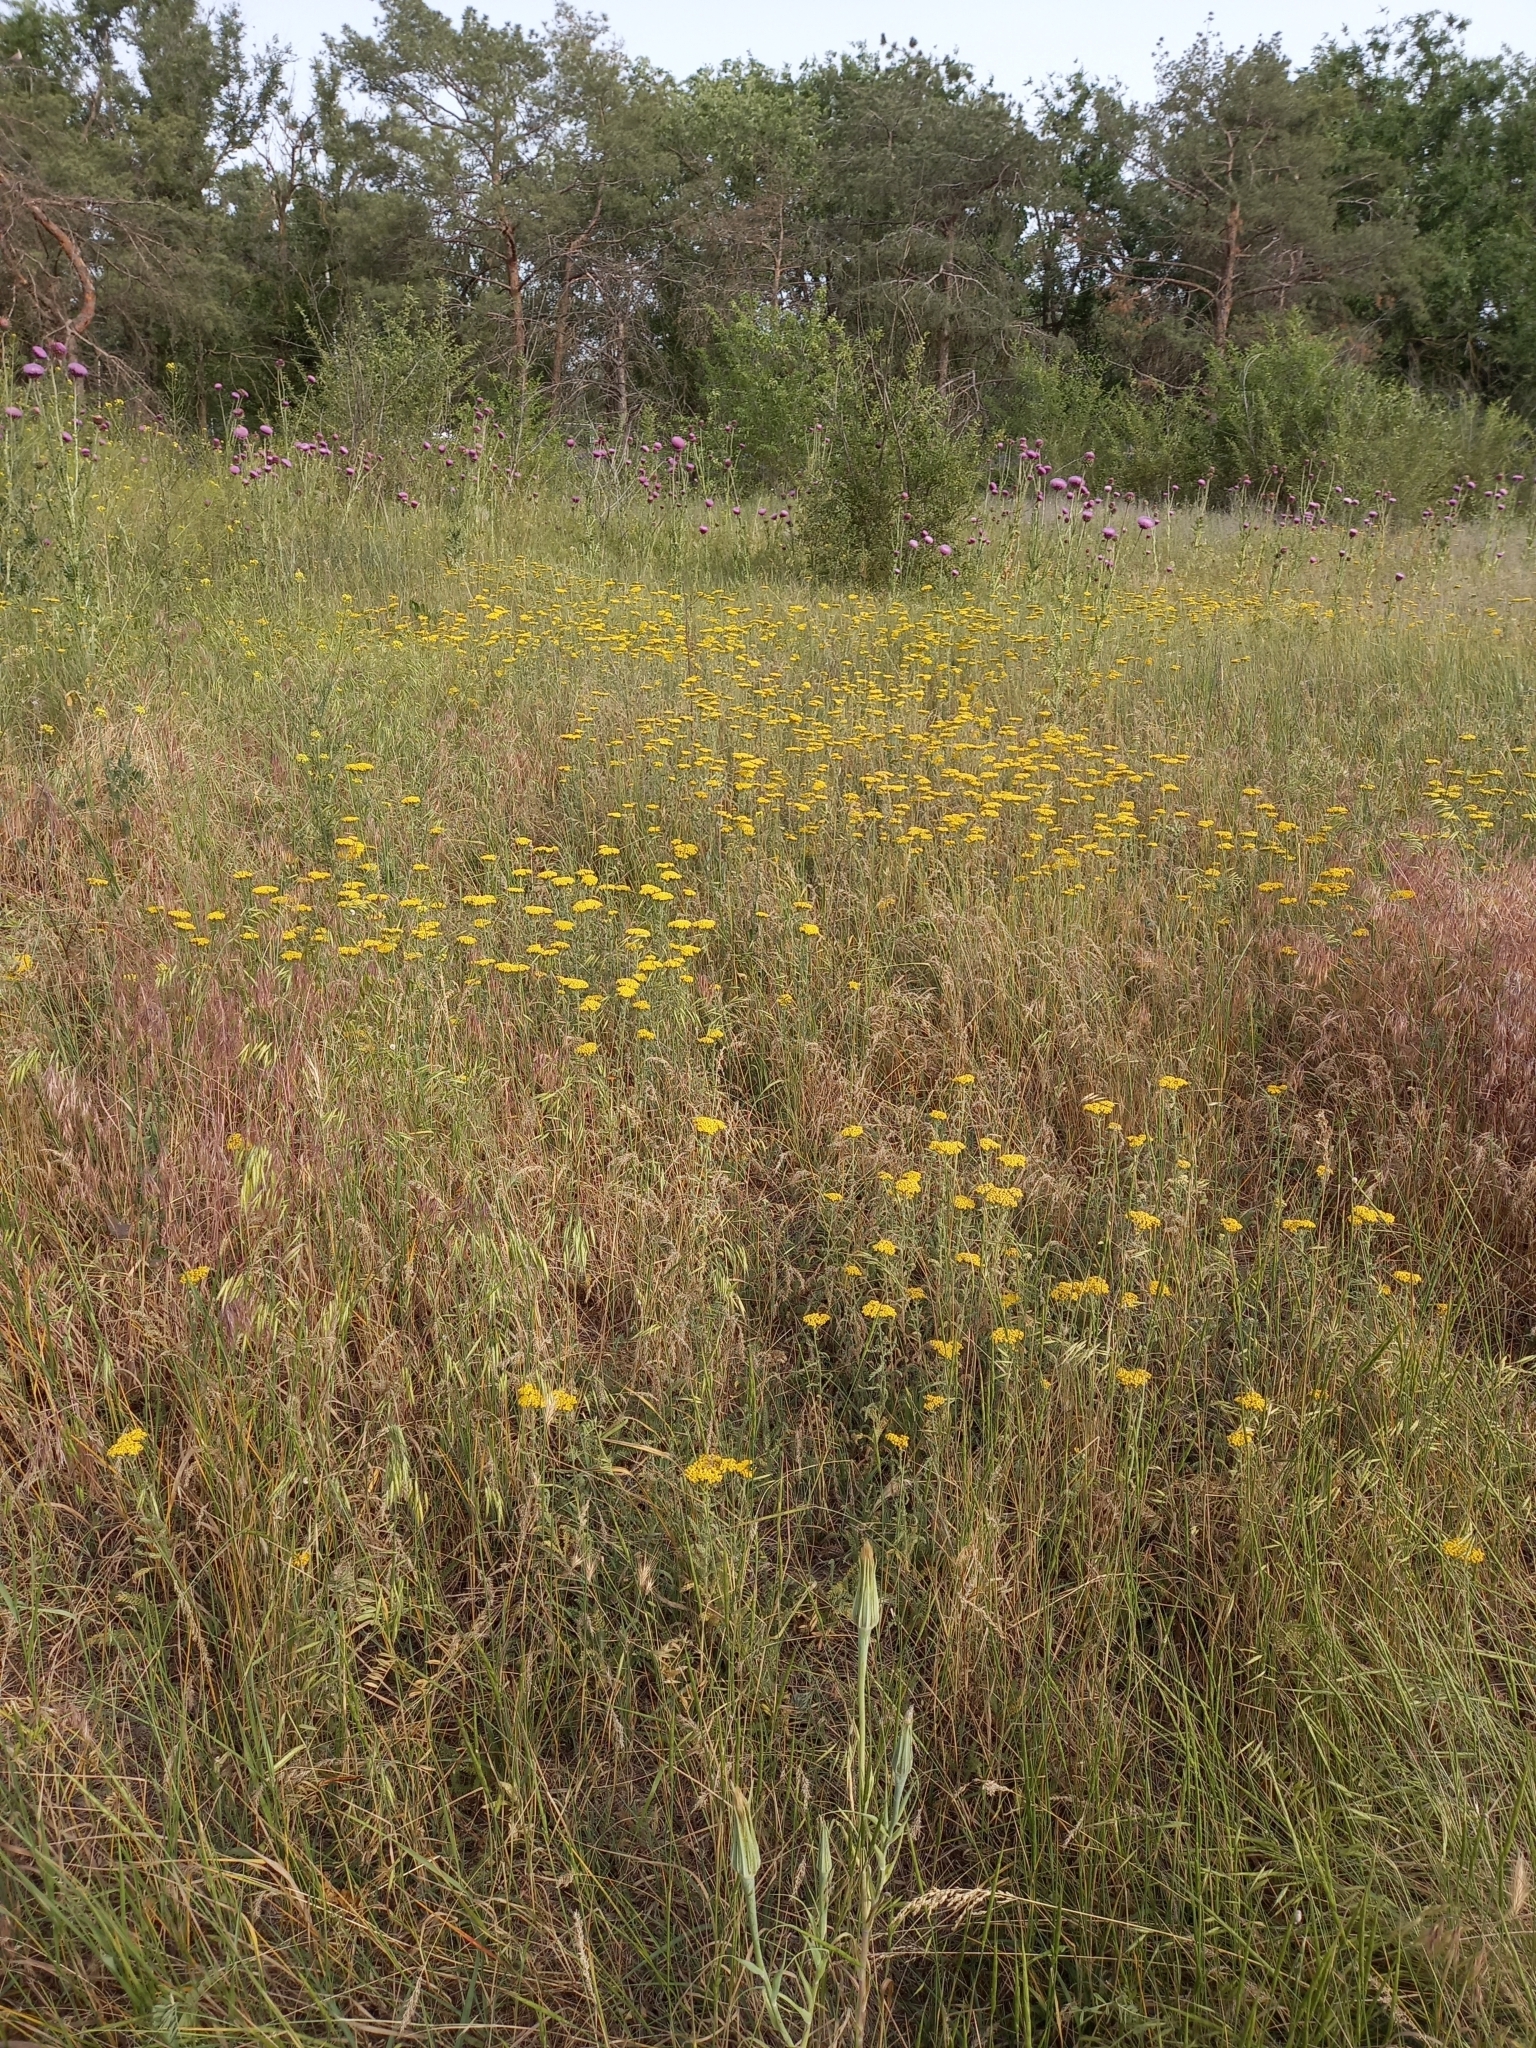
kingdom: Plantae
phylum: Tracheophyta
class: Magnoliopsida
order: Asterales
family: Asteraceae
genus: Achillea
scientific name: Achillea arabica
